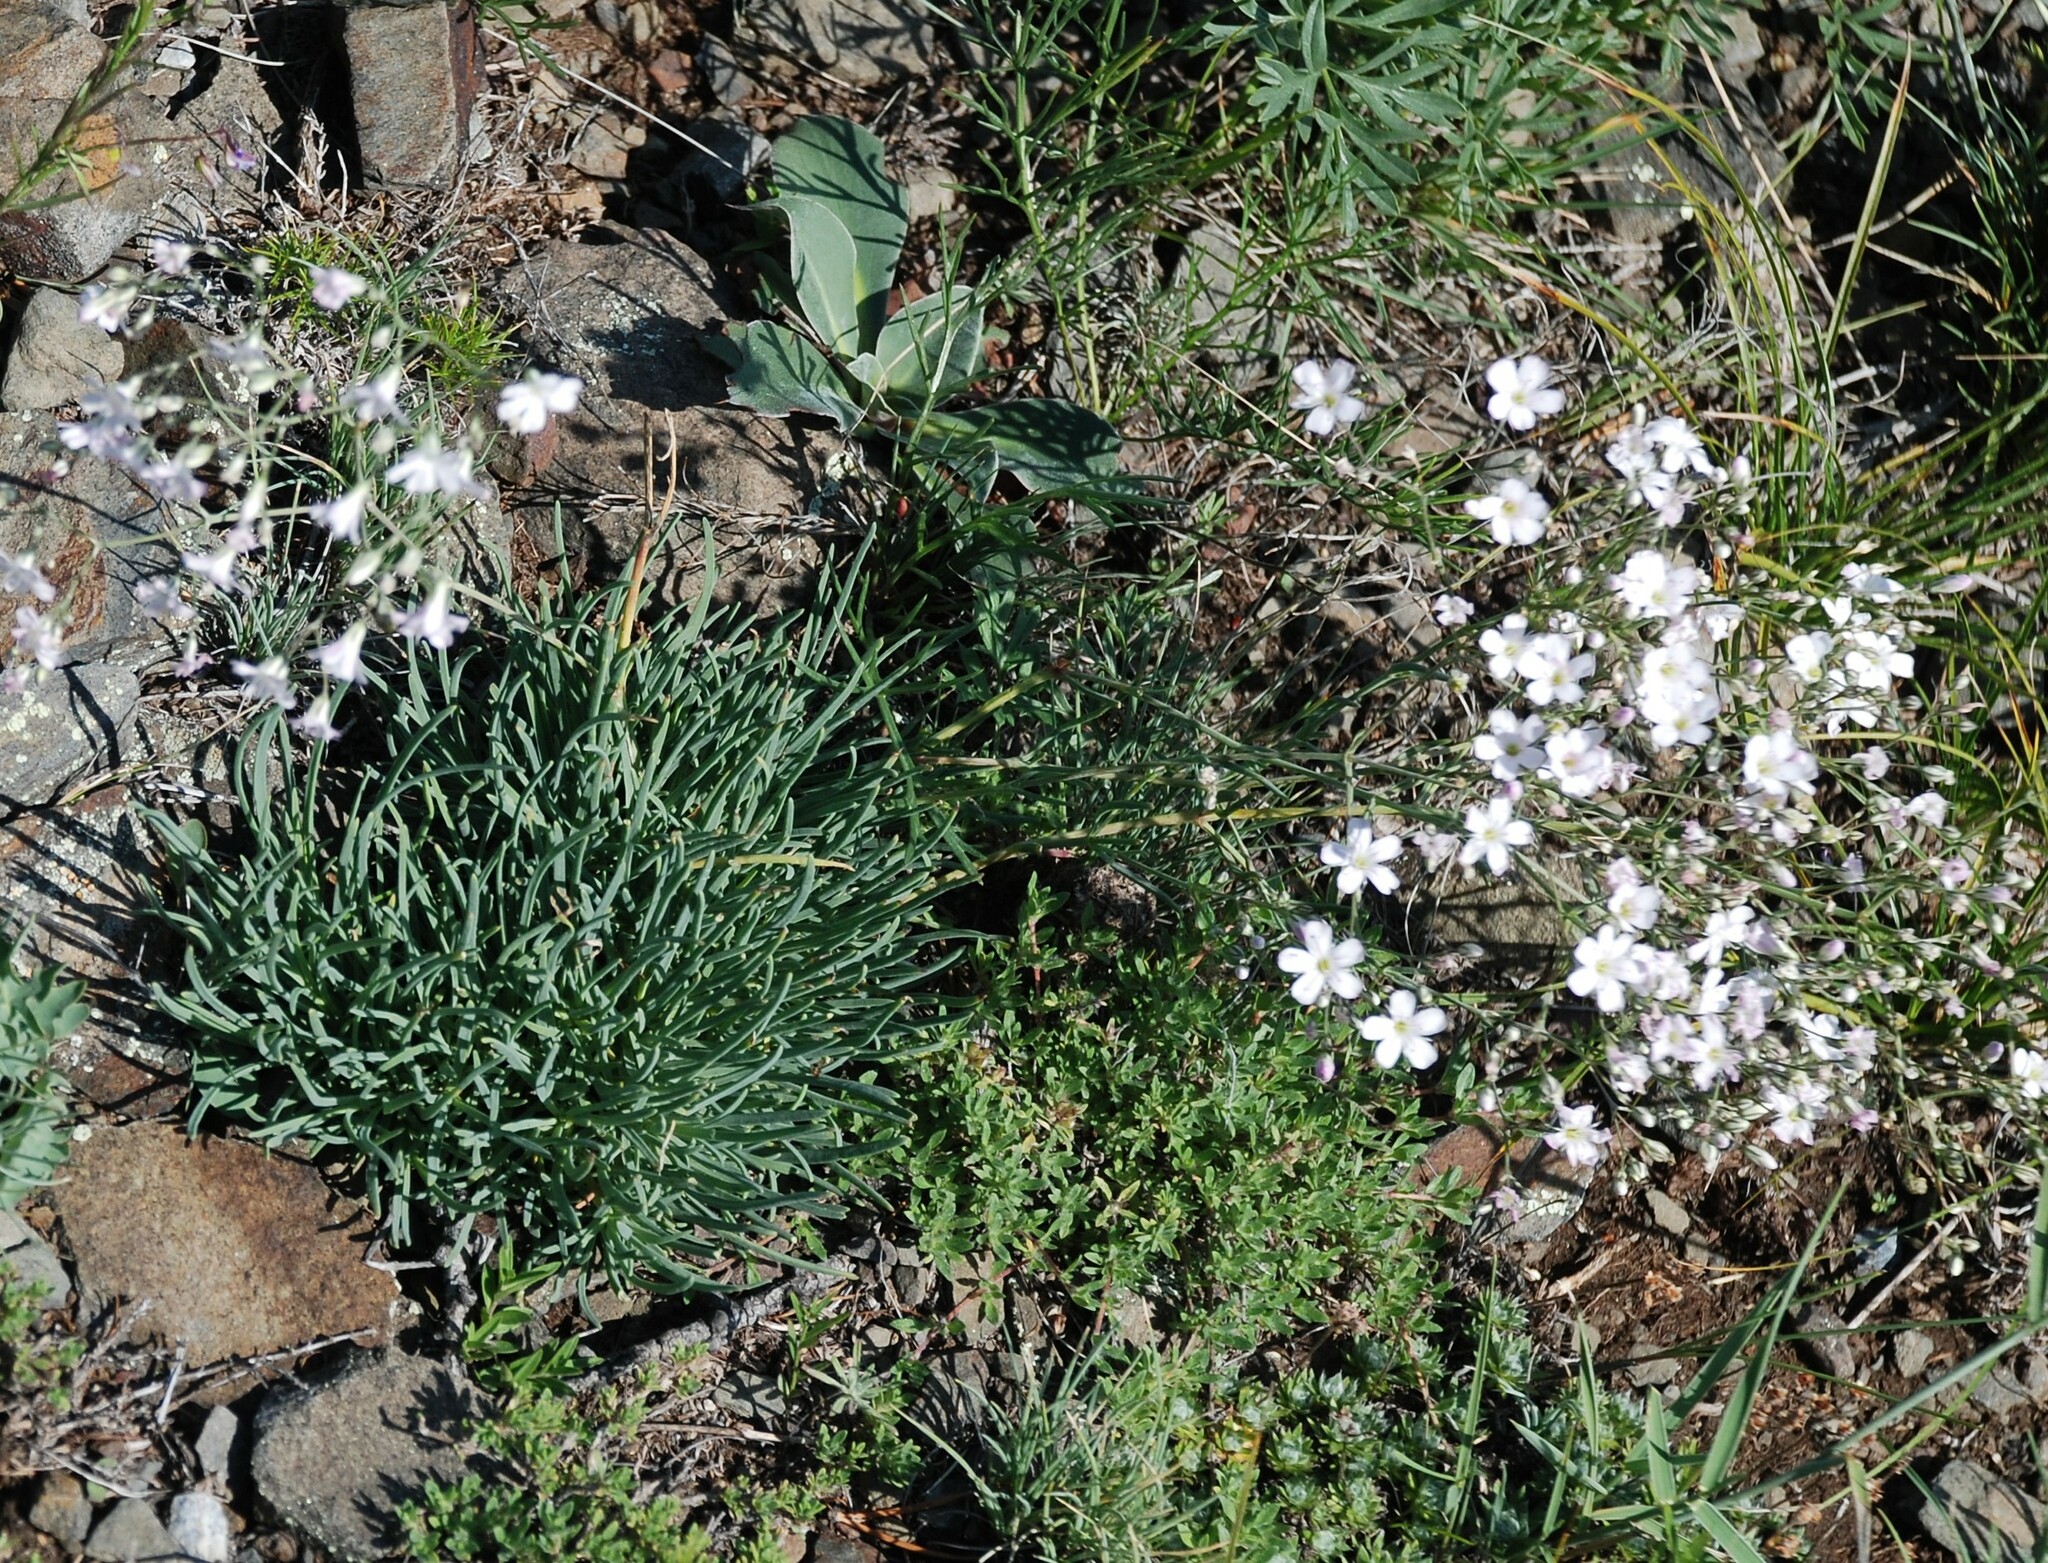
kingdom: Plantae
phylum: Tracheophyta
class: Magnoliopsida
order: Caryophyllales
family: Caryophyllaceae
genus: Gypsophila
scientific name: Gypsophila patrinii
